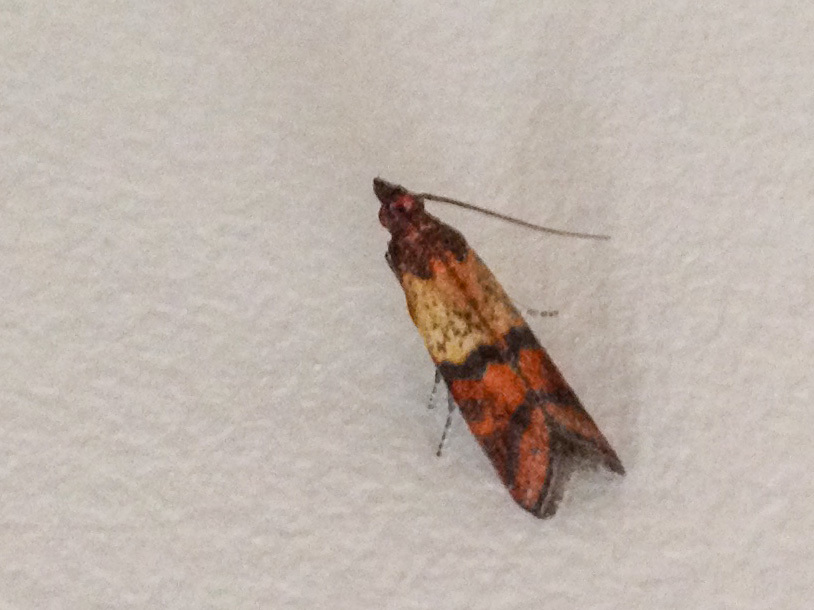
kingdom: Animalia
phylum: Arthropoda
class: Insecta
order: Lepidoptera
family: Pyralidae
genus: Plodia
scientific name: Plodia interpunctella
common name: Indian meal moth
